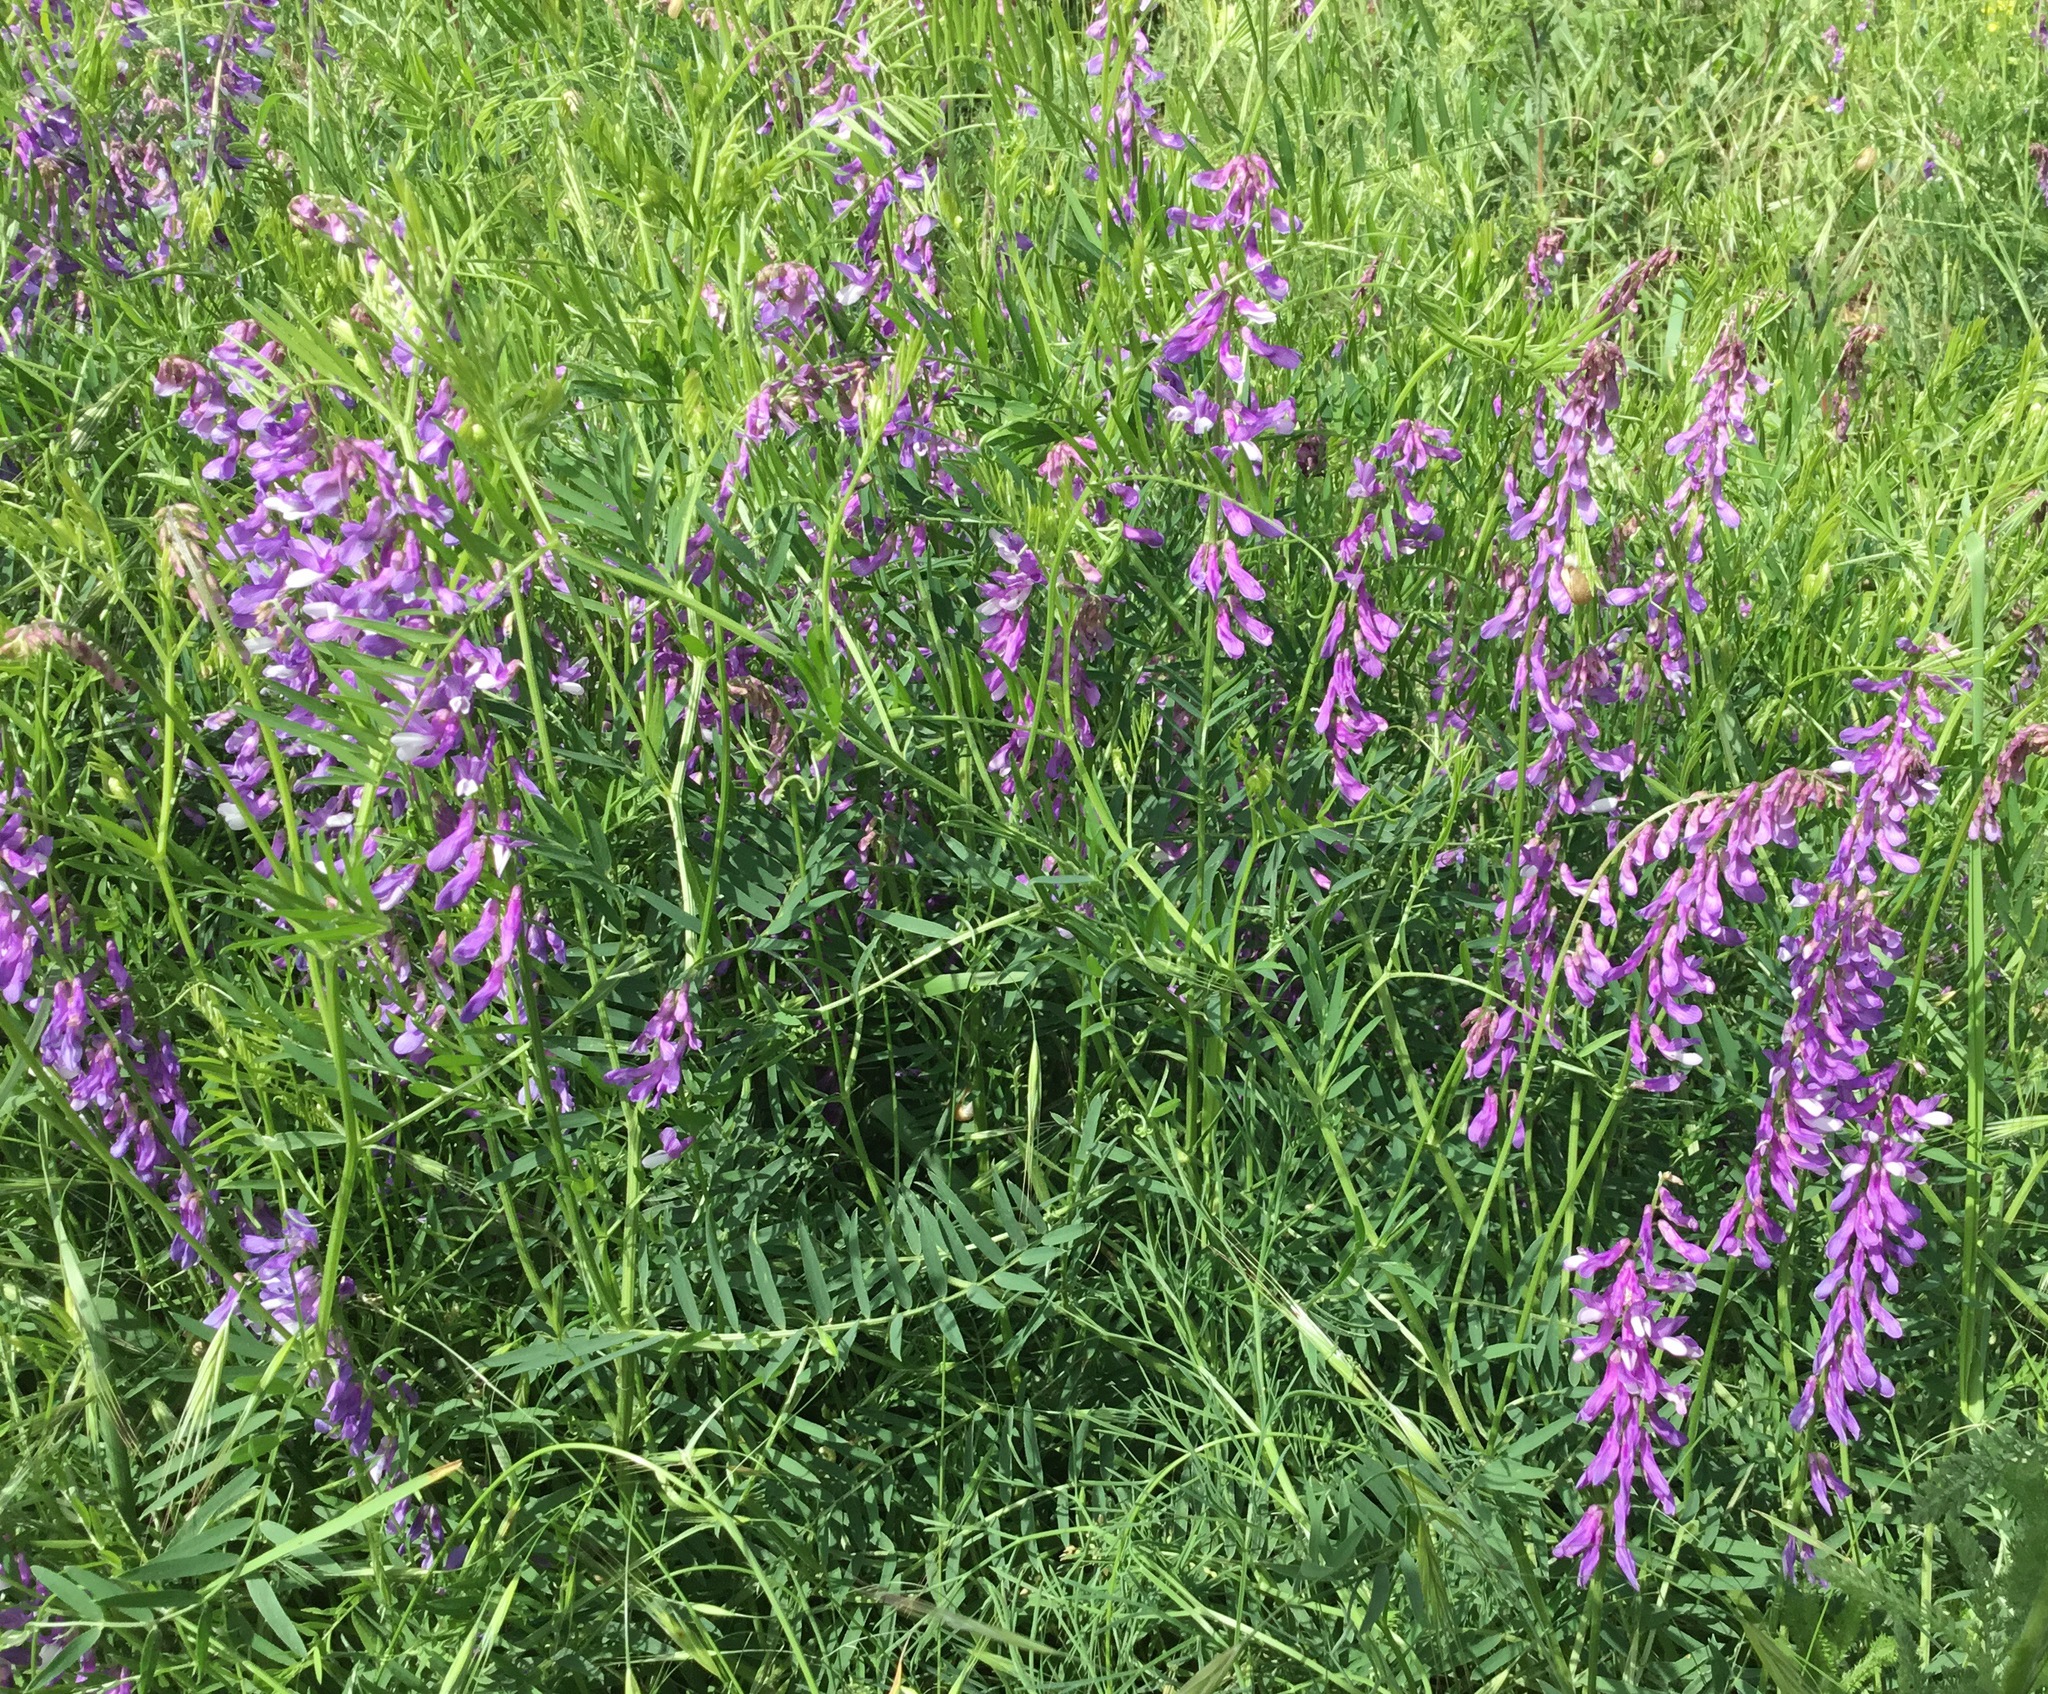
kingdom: Plantae
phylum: Tracheophyta
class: Magnoliopsida
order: Fabales
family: Fabaceae
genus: Vicia
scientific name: Vicia tenuifolia
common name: Fine-leaved vetch
